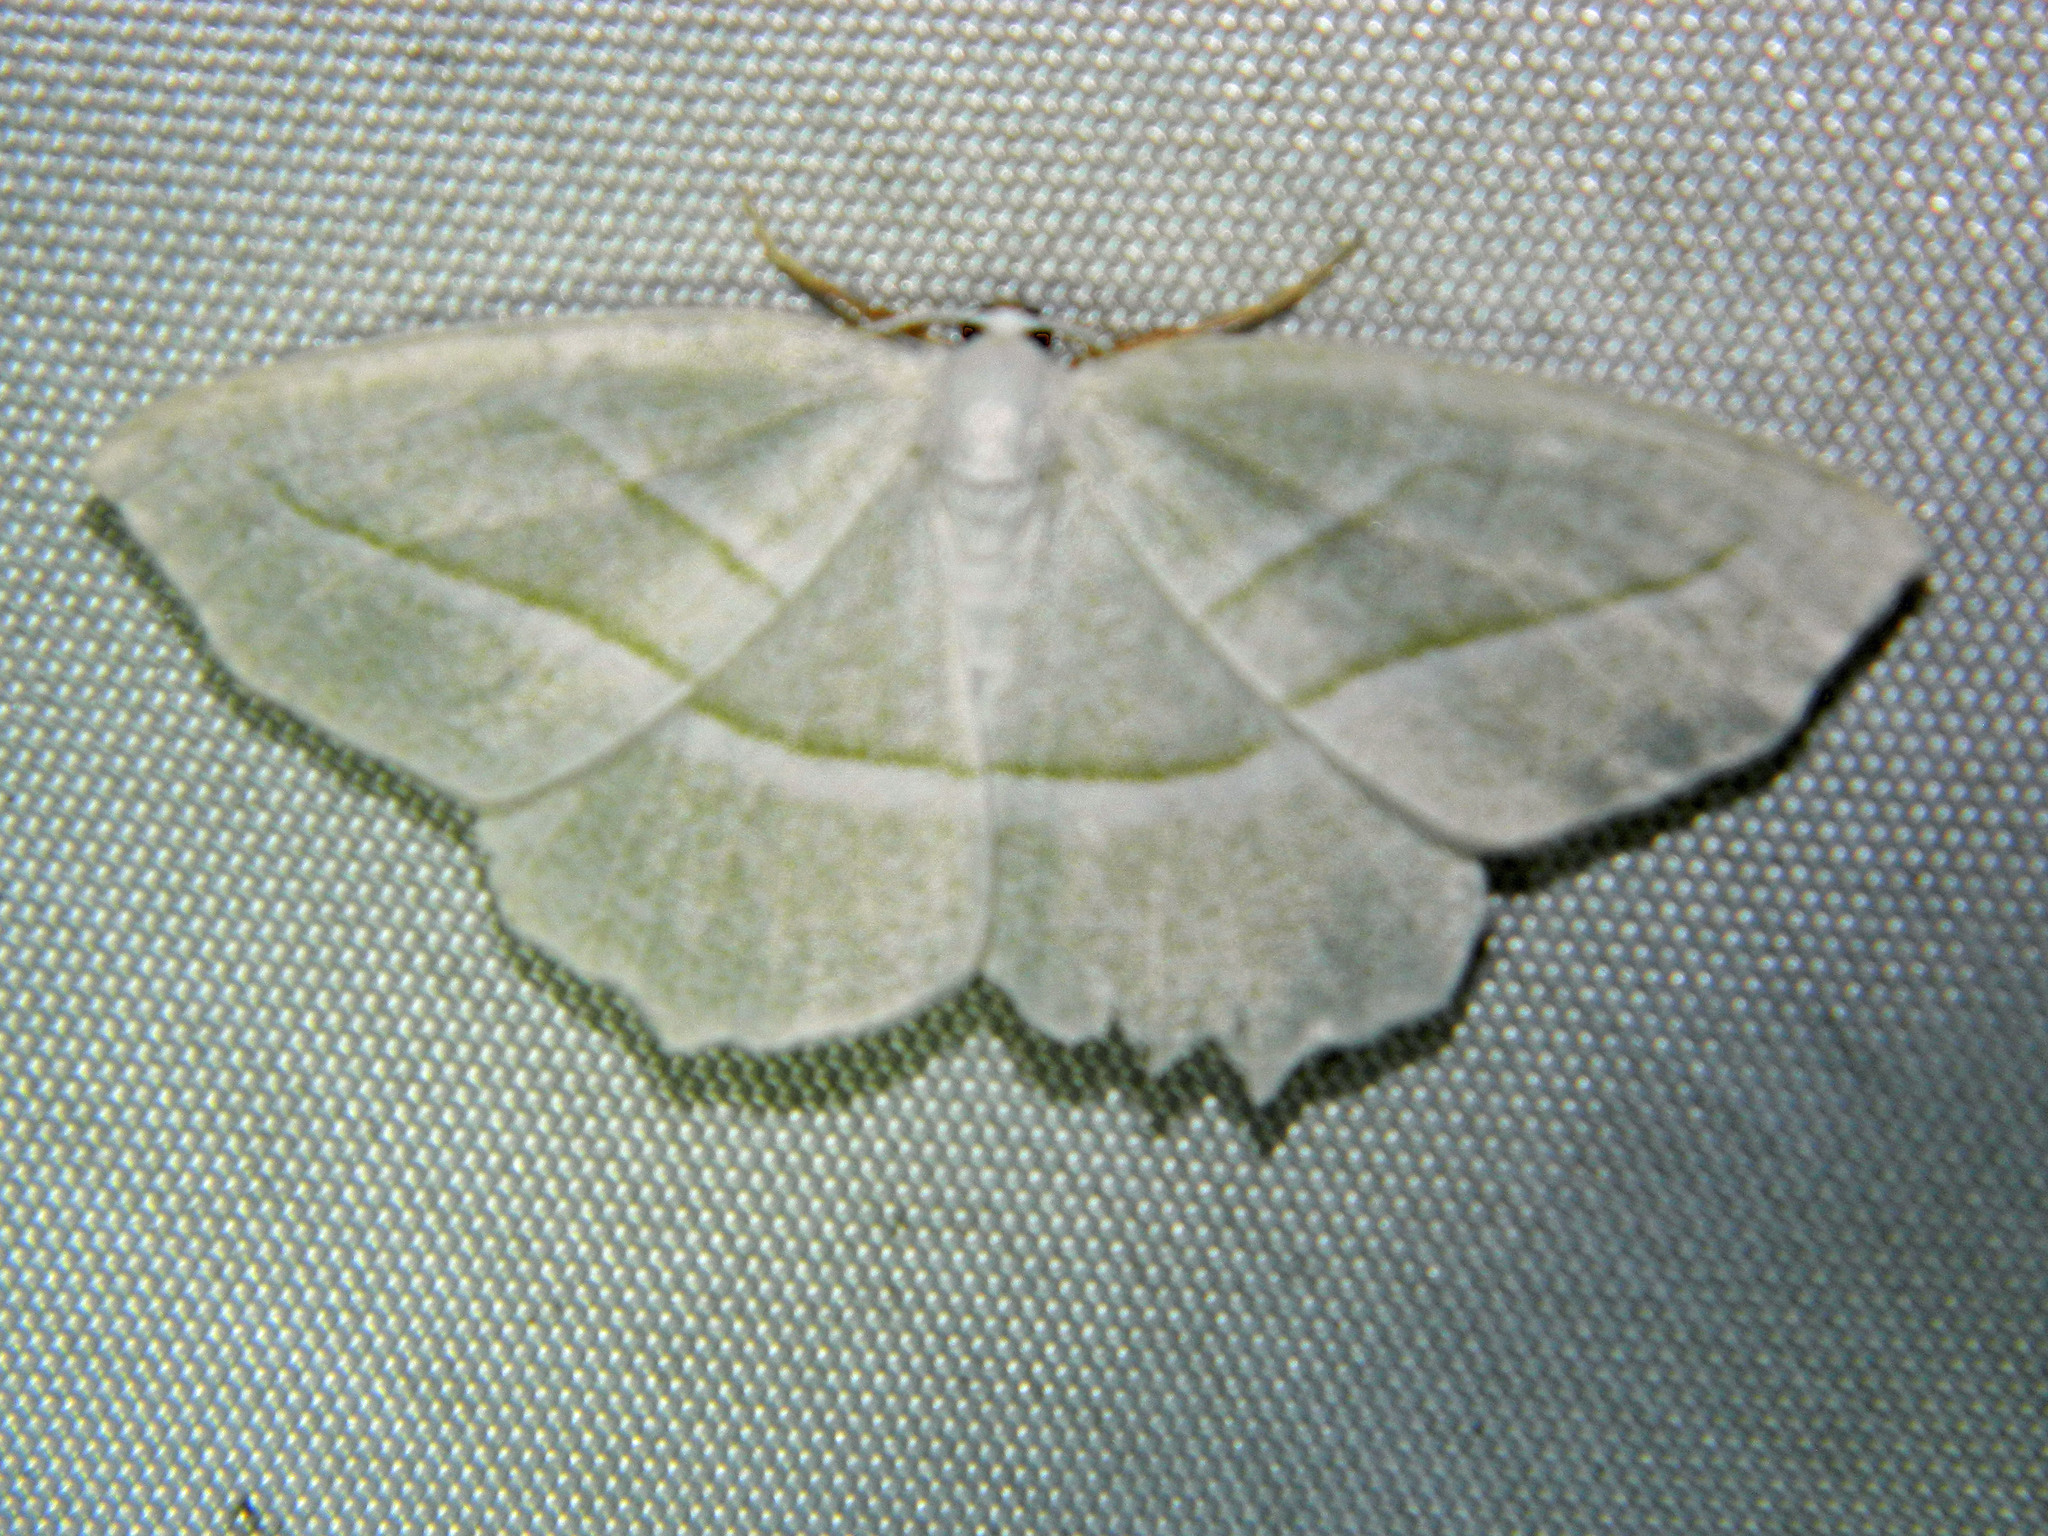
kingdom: Animalia
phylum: Arthropoda
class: Insecta
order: Lepidoptera
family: Geometridae
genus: Campaea
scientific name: Campaea perlata
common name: Fringed looper
